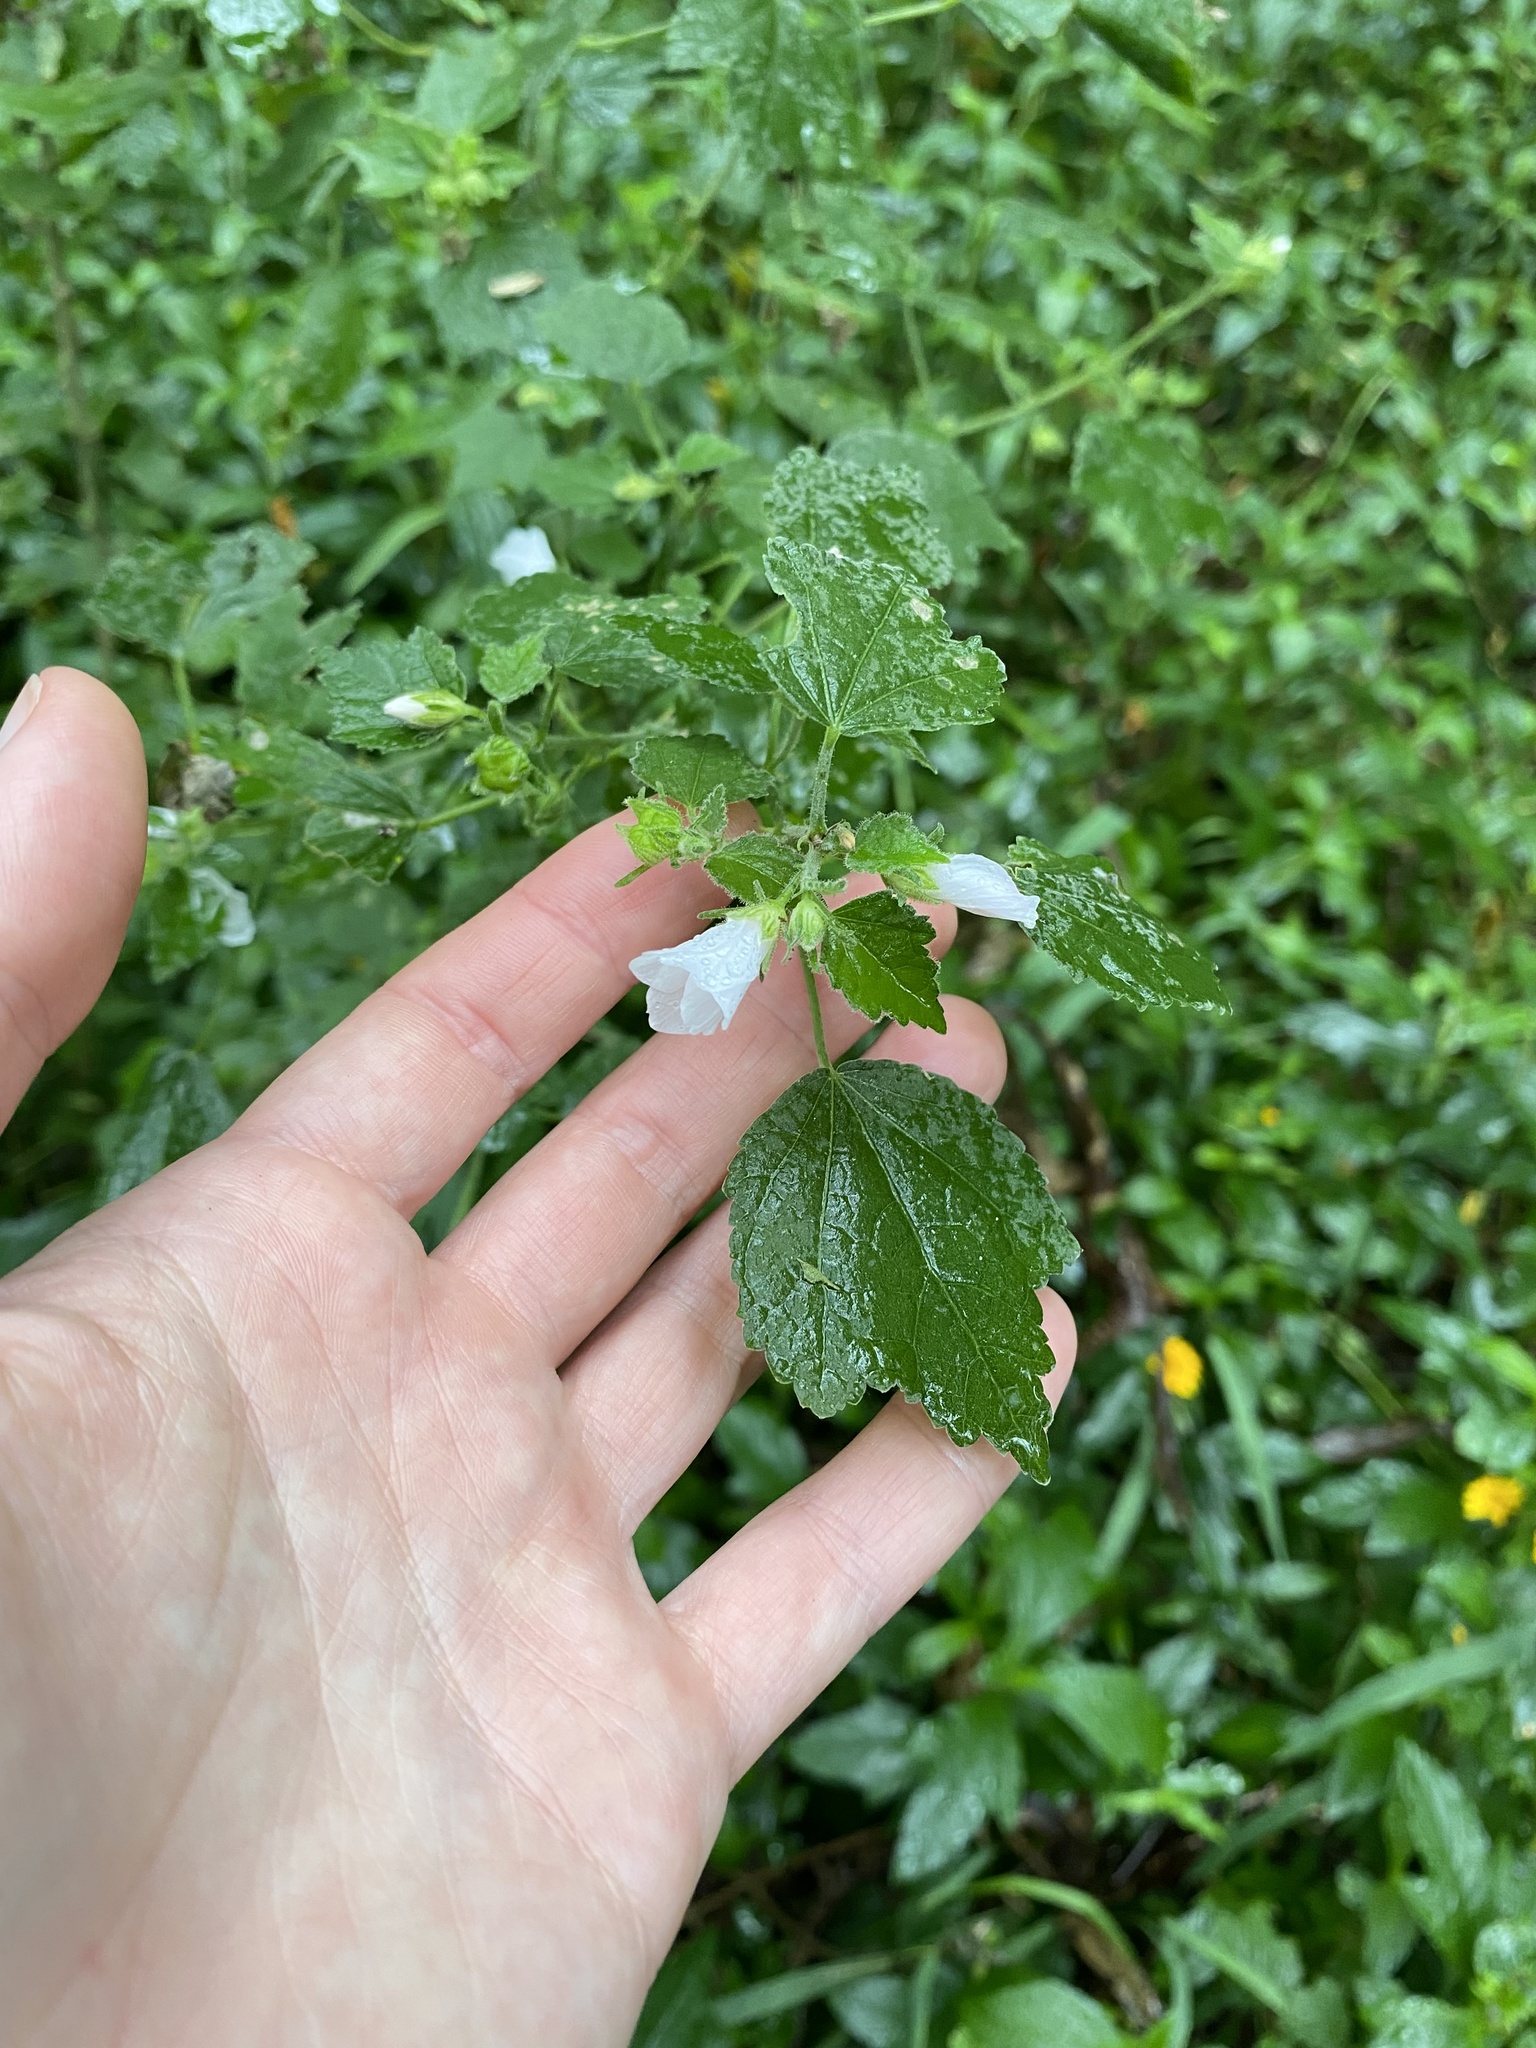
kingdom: Plantae
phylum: Tracheophyta
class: Magnoliopsida
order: Malvales
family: Malvaceae
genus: Pavonia
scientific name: Pavonia columella
